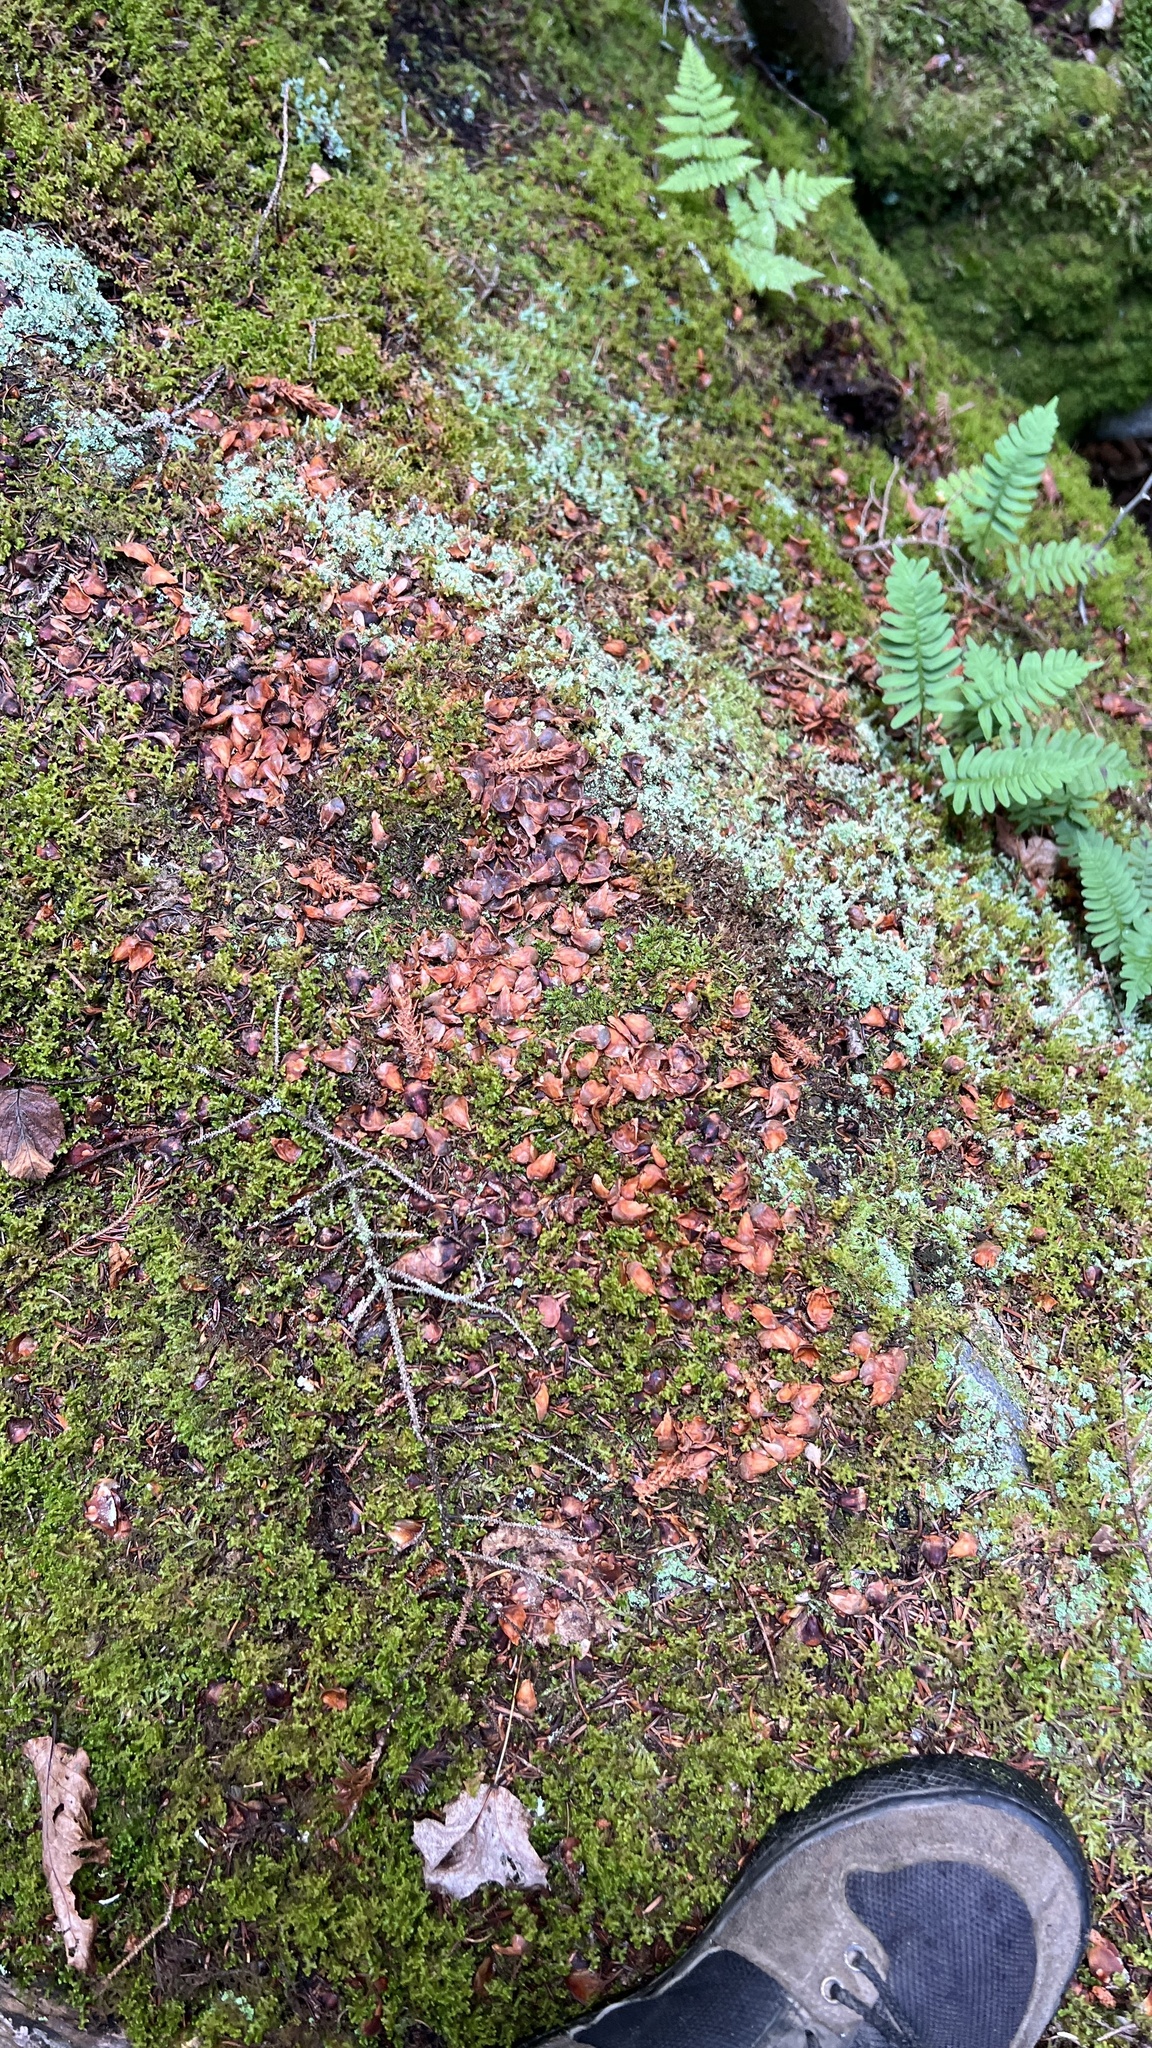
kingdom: Animalia
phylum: Chordata
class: Mammalia
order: Rodentia
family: Sciuridae
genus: Tamiasciurus
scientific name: Tamiasciurus hudsonicus
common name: Red squirrel
